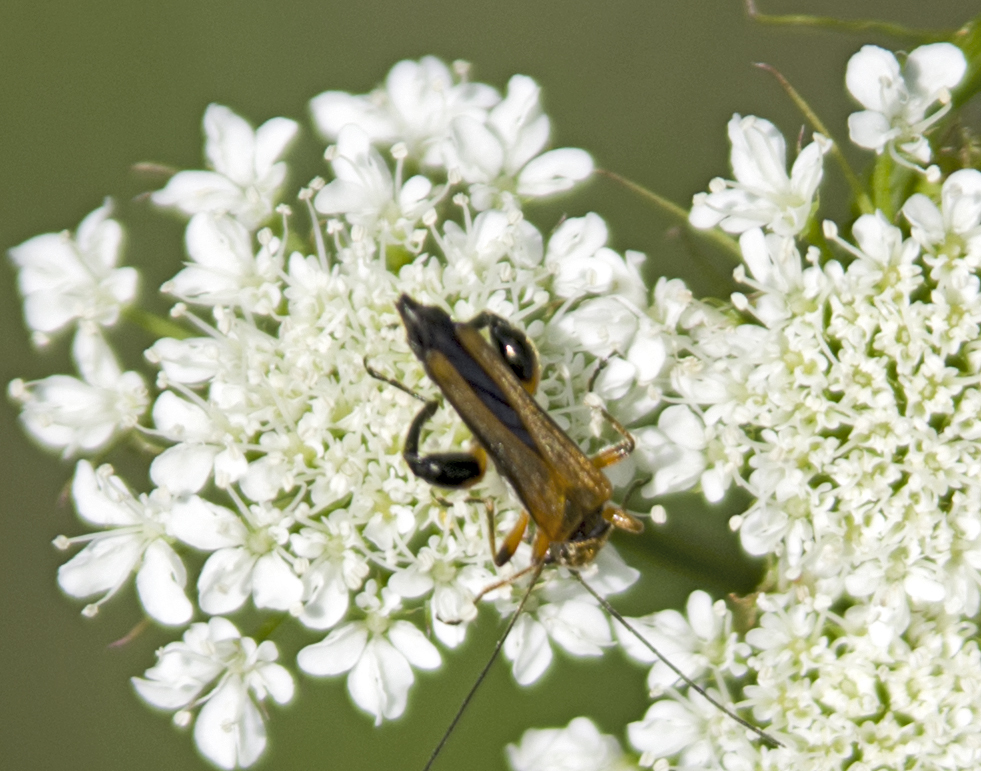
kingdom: Animalia
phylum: Arthropoda
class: Insecta
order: Coleoptera
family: Oedemeridae
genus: Oedemera
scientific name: Oedemera podagrariae
